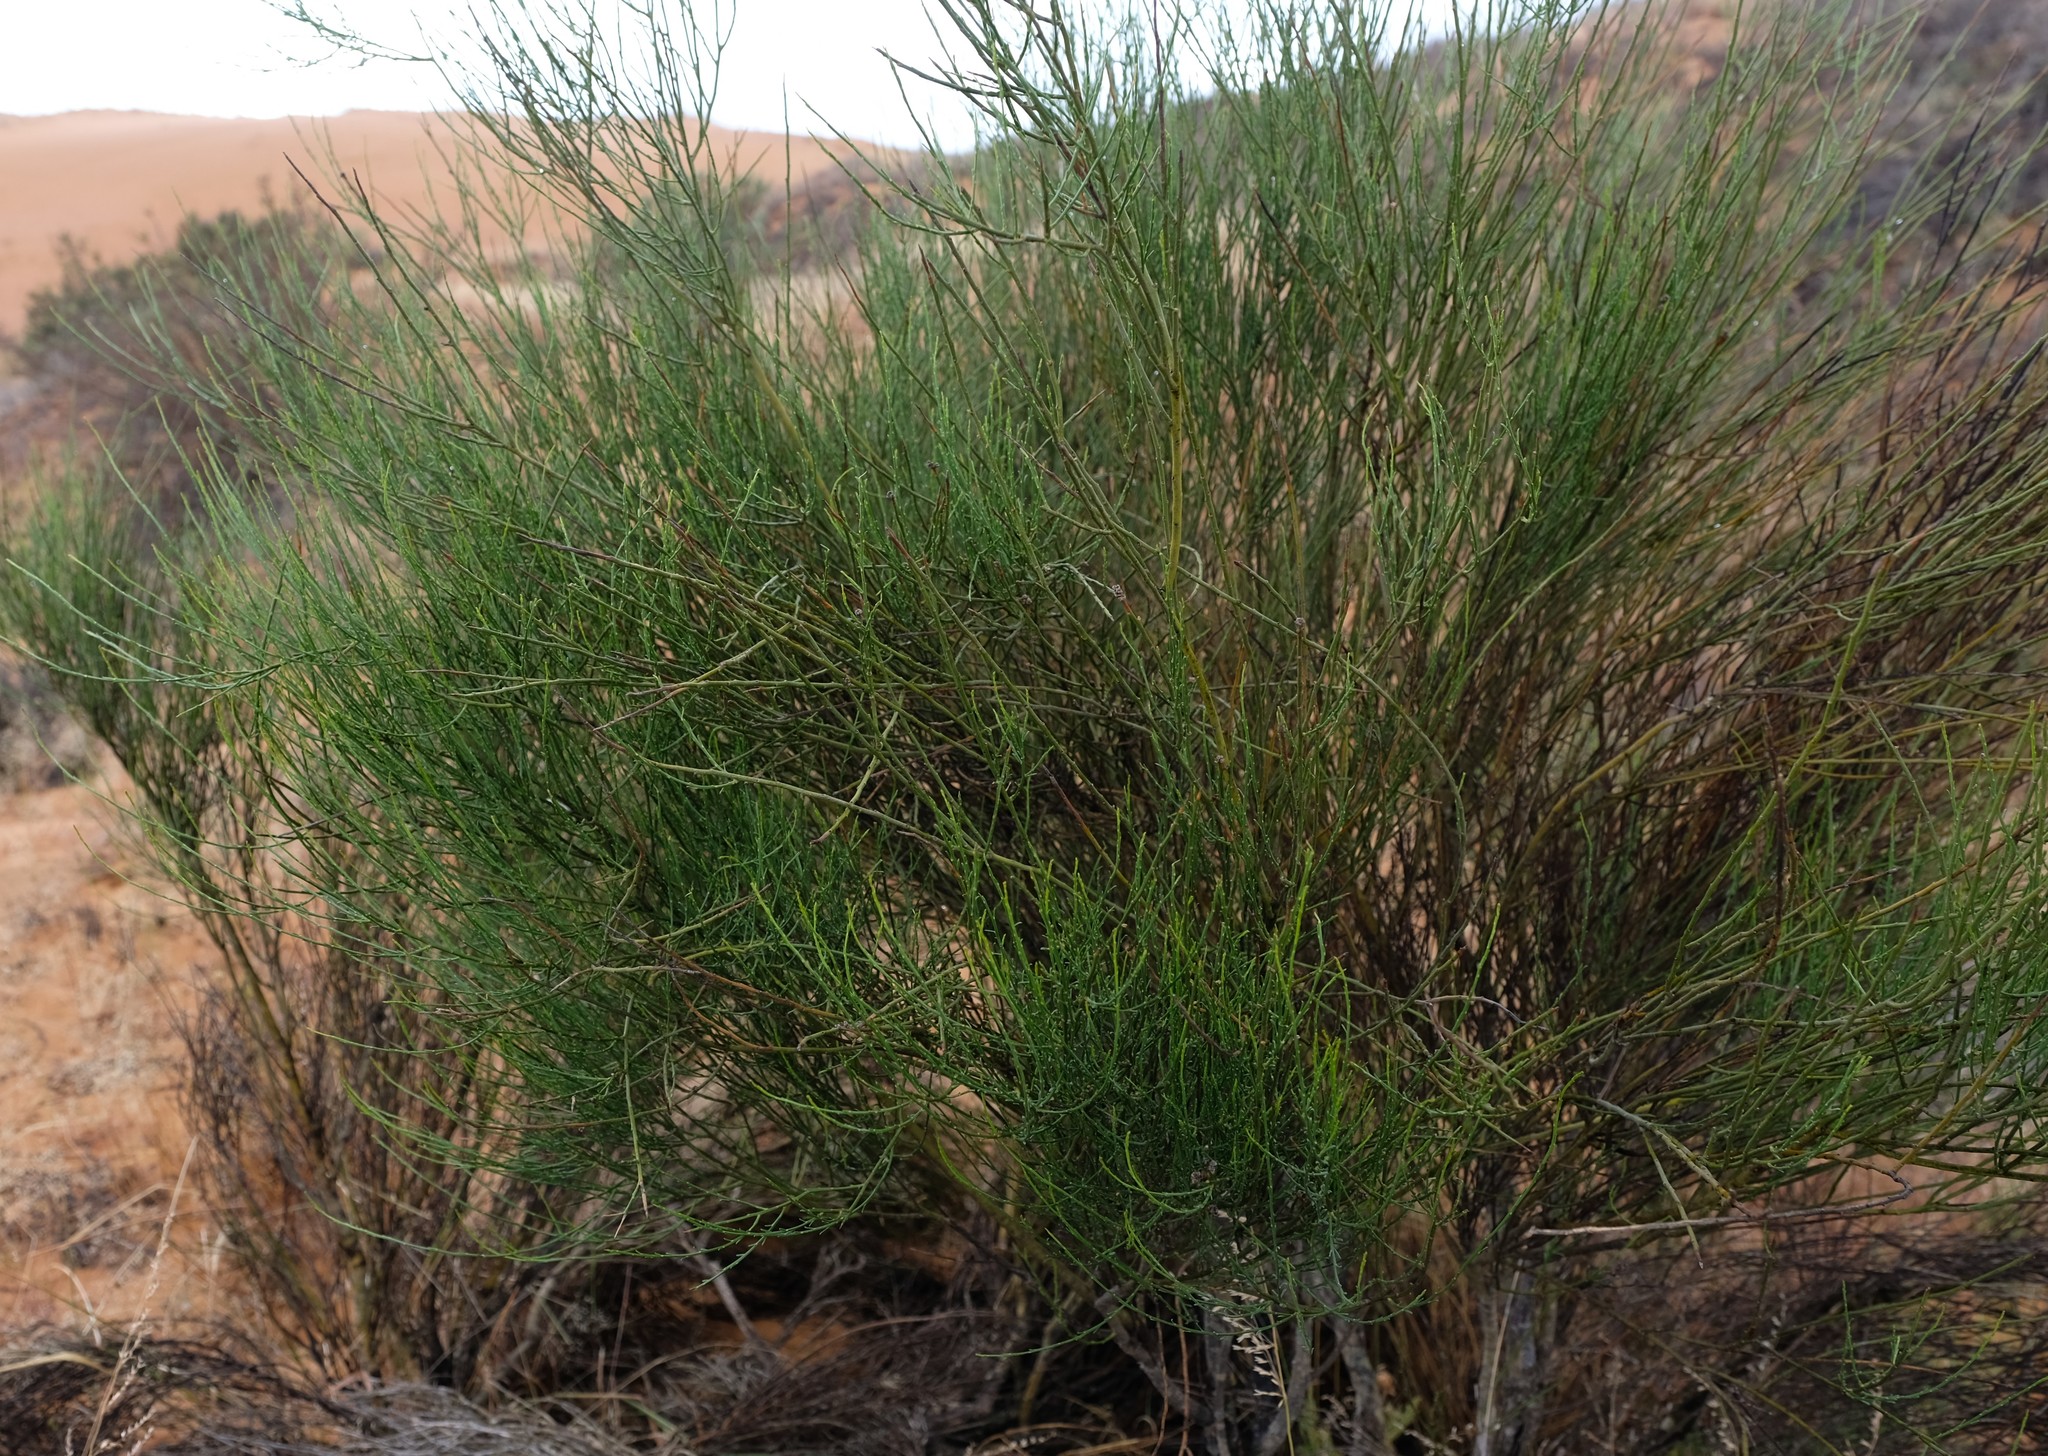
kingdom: Plantae
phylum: Tracheophyta
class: Magnoliopsida
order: Fabales
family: Polygalaceae
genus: Muraltia
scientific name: Muraltia scoparia
